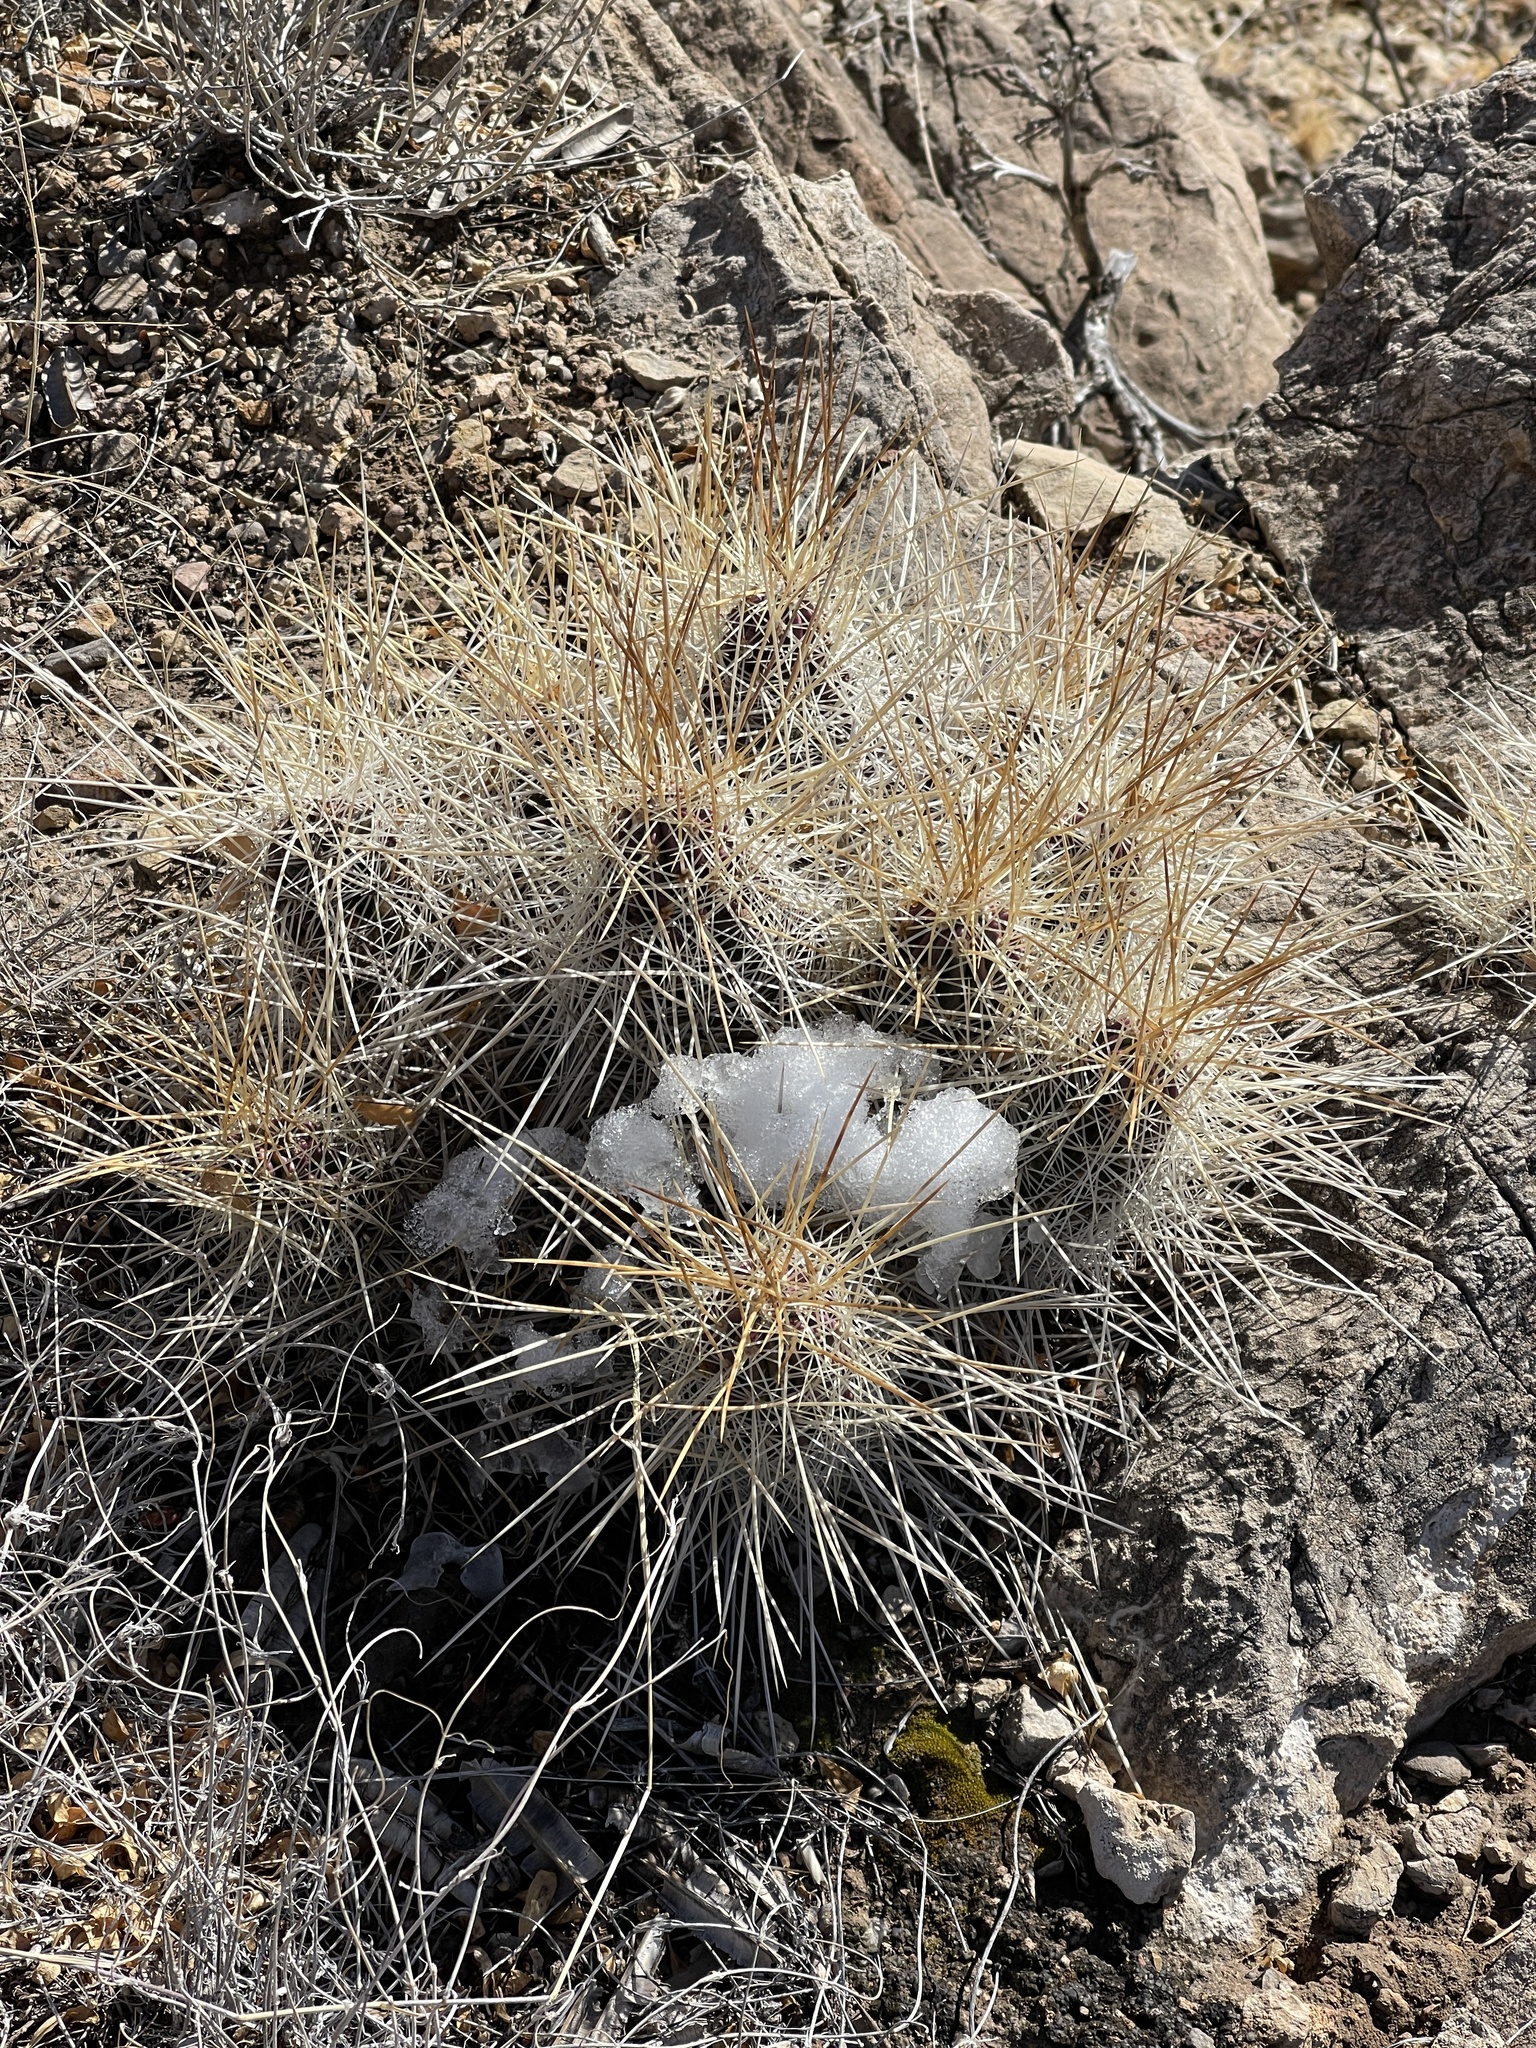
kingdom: Plantae
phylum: Tracheophyta
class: Magnoliopsida
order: Caryophyllales
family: Cactaceae
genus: Echinocereus
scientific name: Echinocereus stramineus
